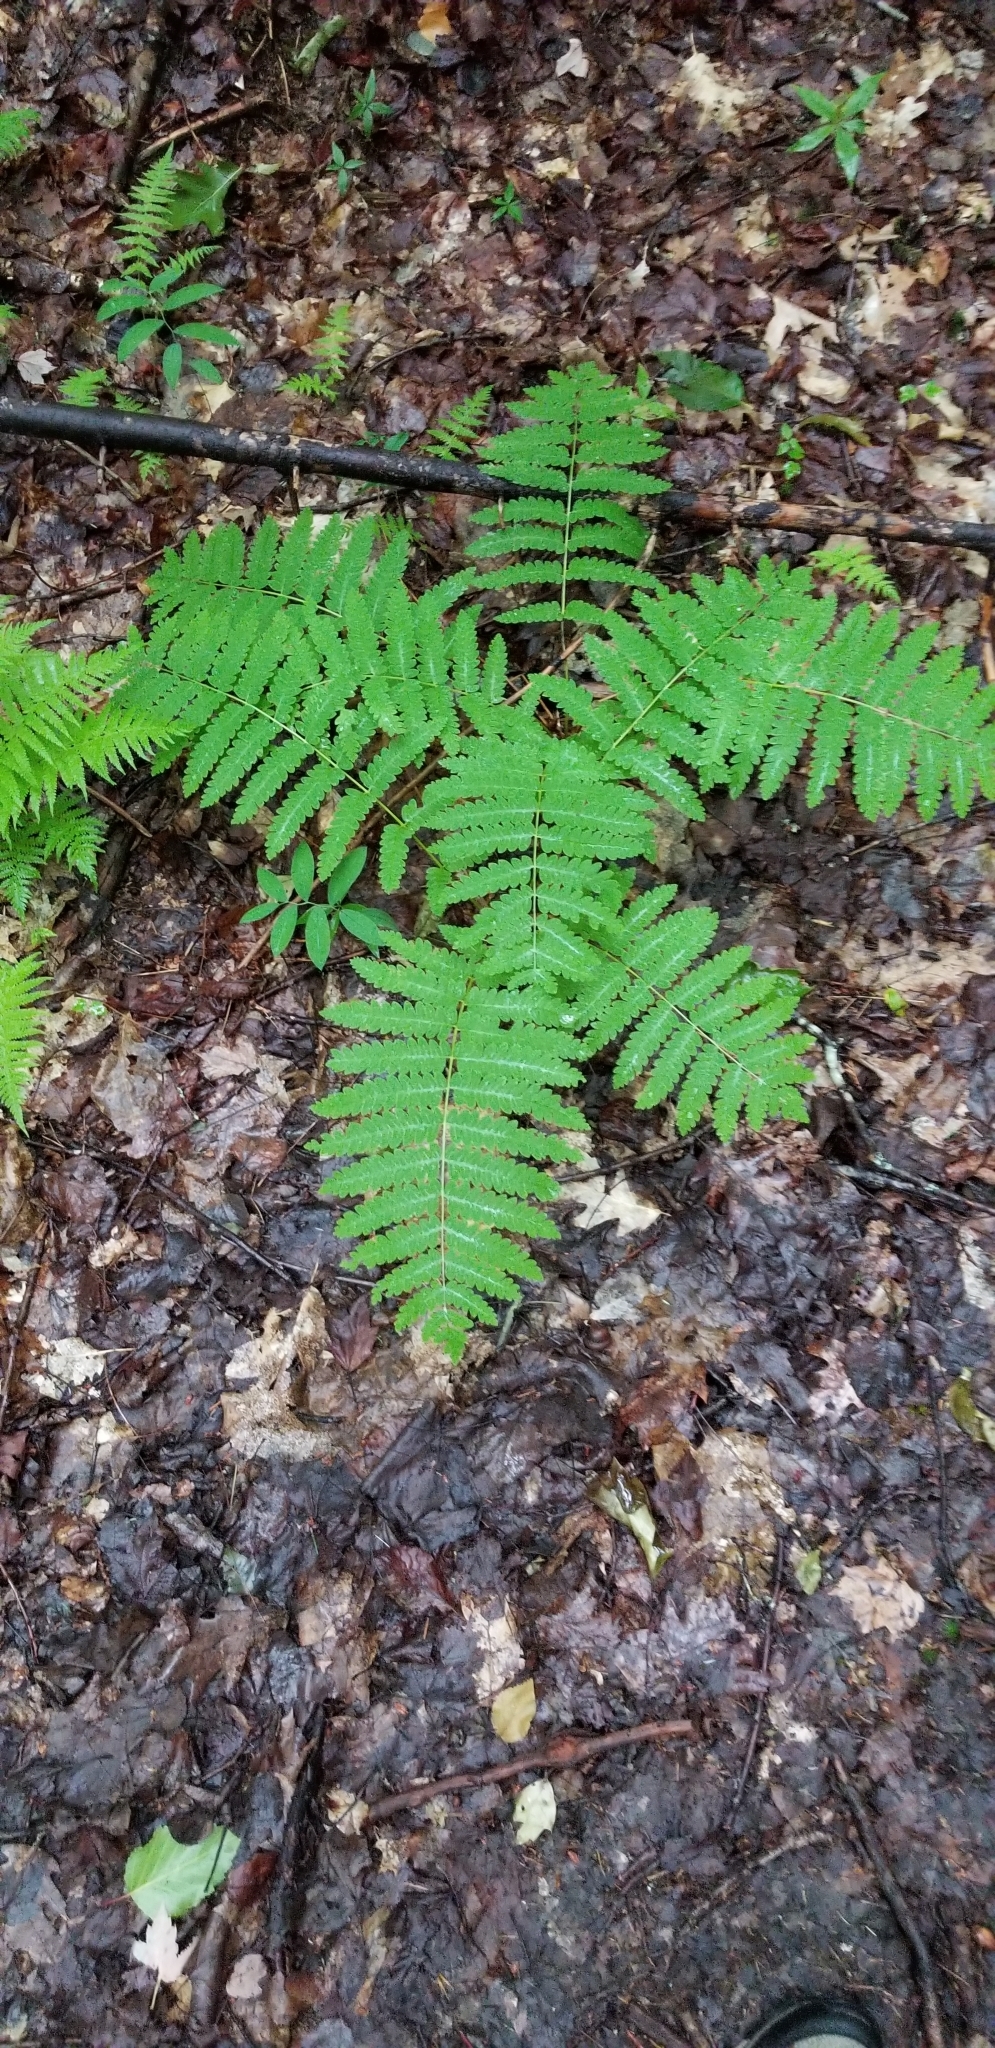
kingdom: Plantae
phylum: Tracheophyta
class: Polypodiopsida
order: Osmundales
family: Osmundaceae
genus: Claytosmunda
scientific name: Claytosmunda claytoniana
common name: Clayton's fern
